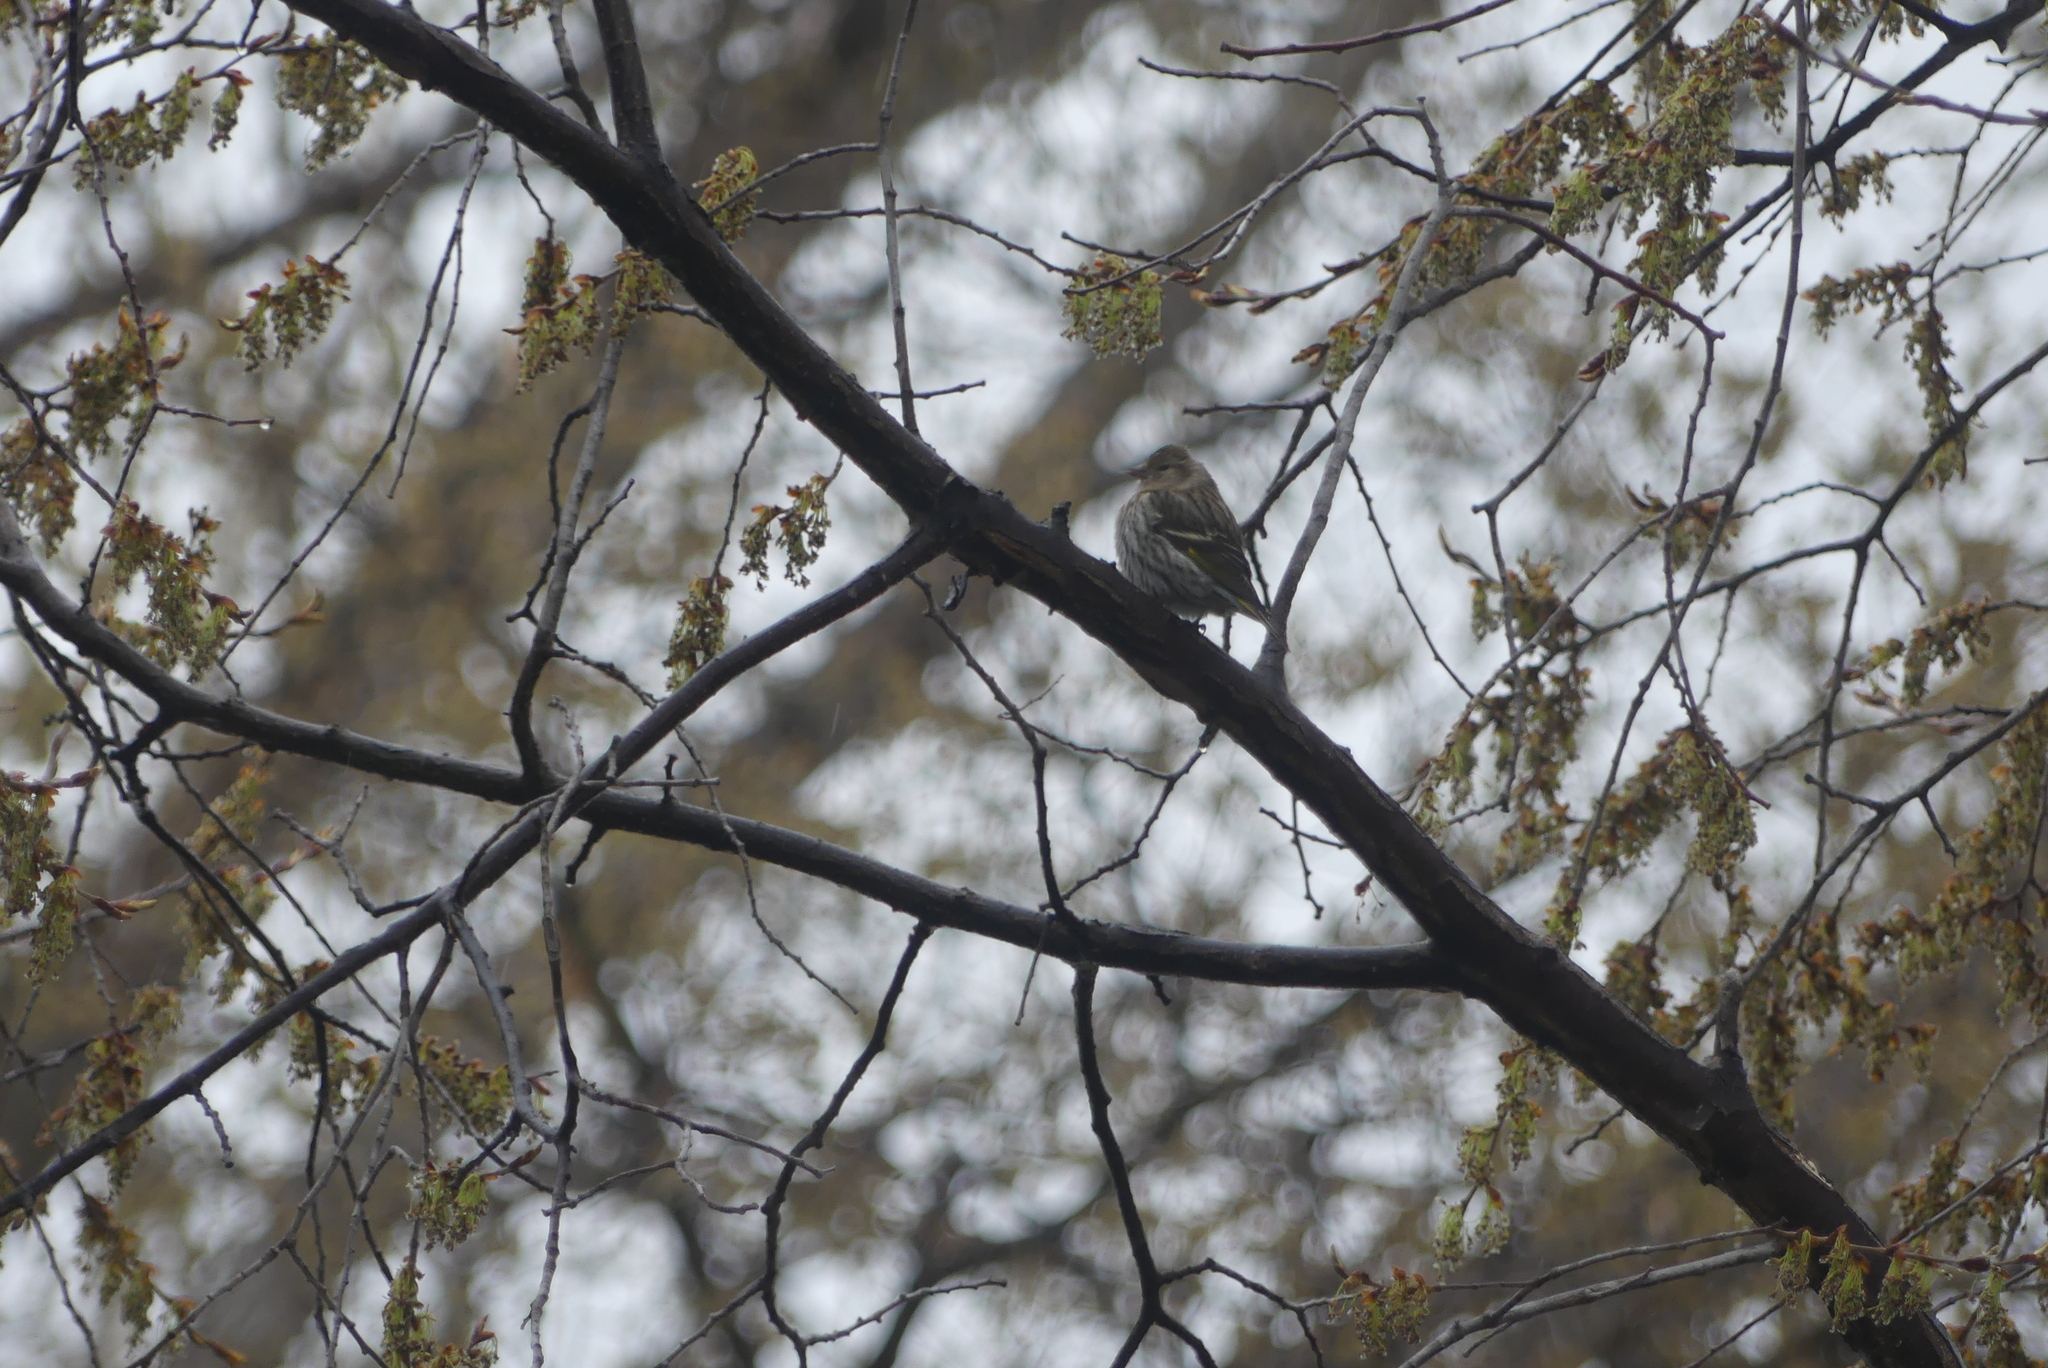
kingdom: Animalia
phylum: Chordata
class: Aves
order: Passeriformes
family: Fringillidae
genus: Spinus
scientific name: Spinus pinus
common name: Pine siskin
